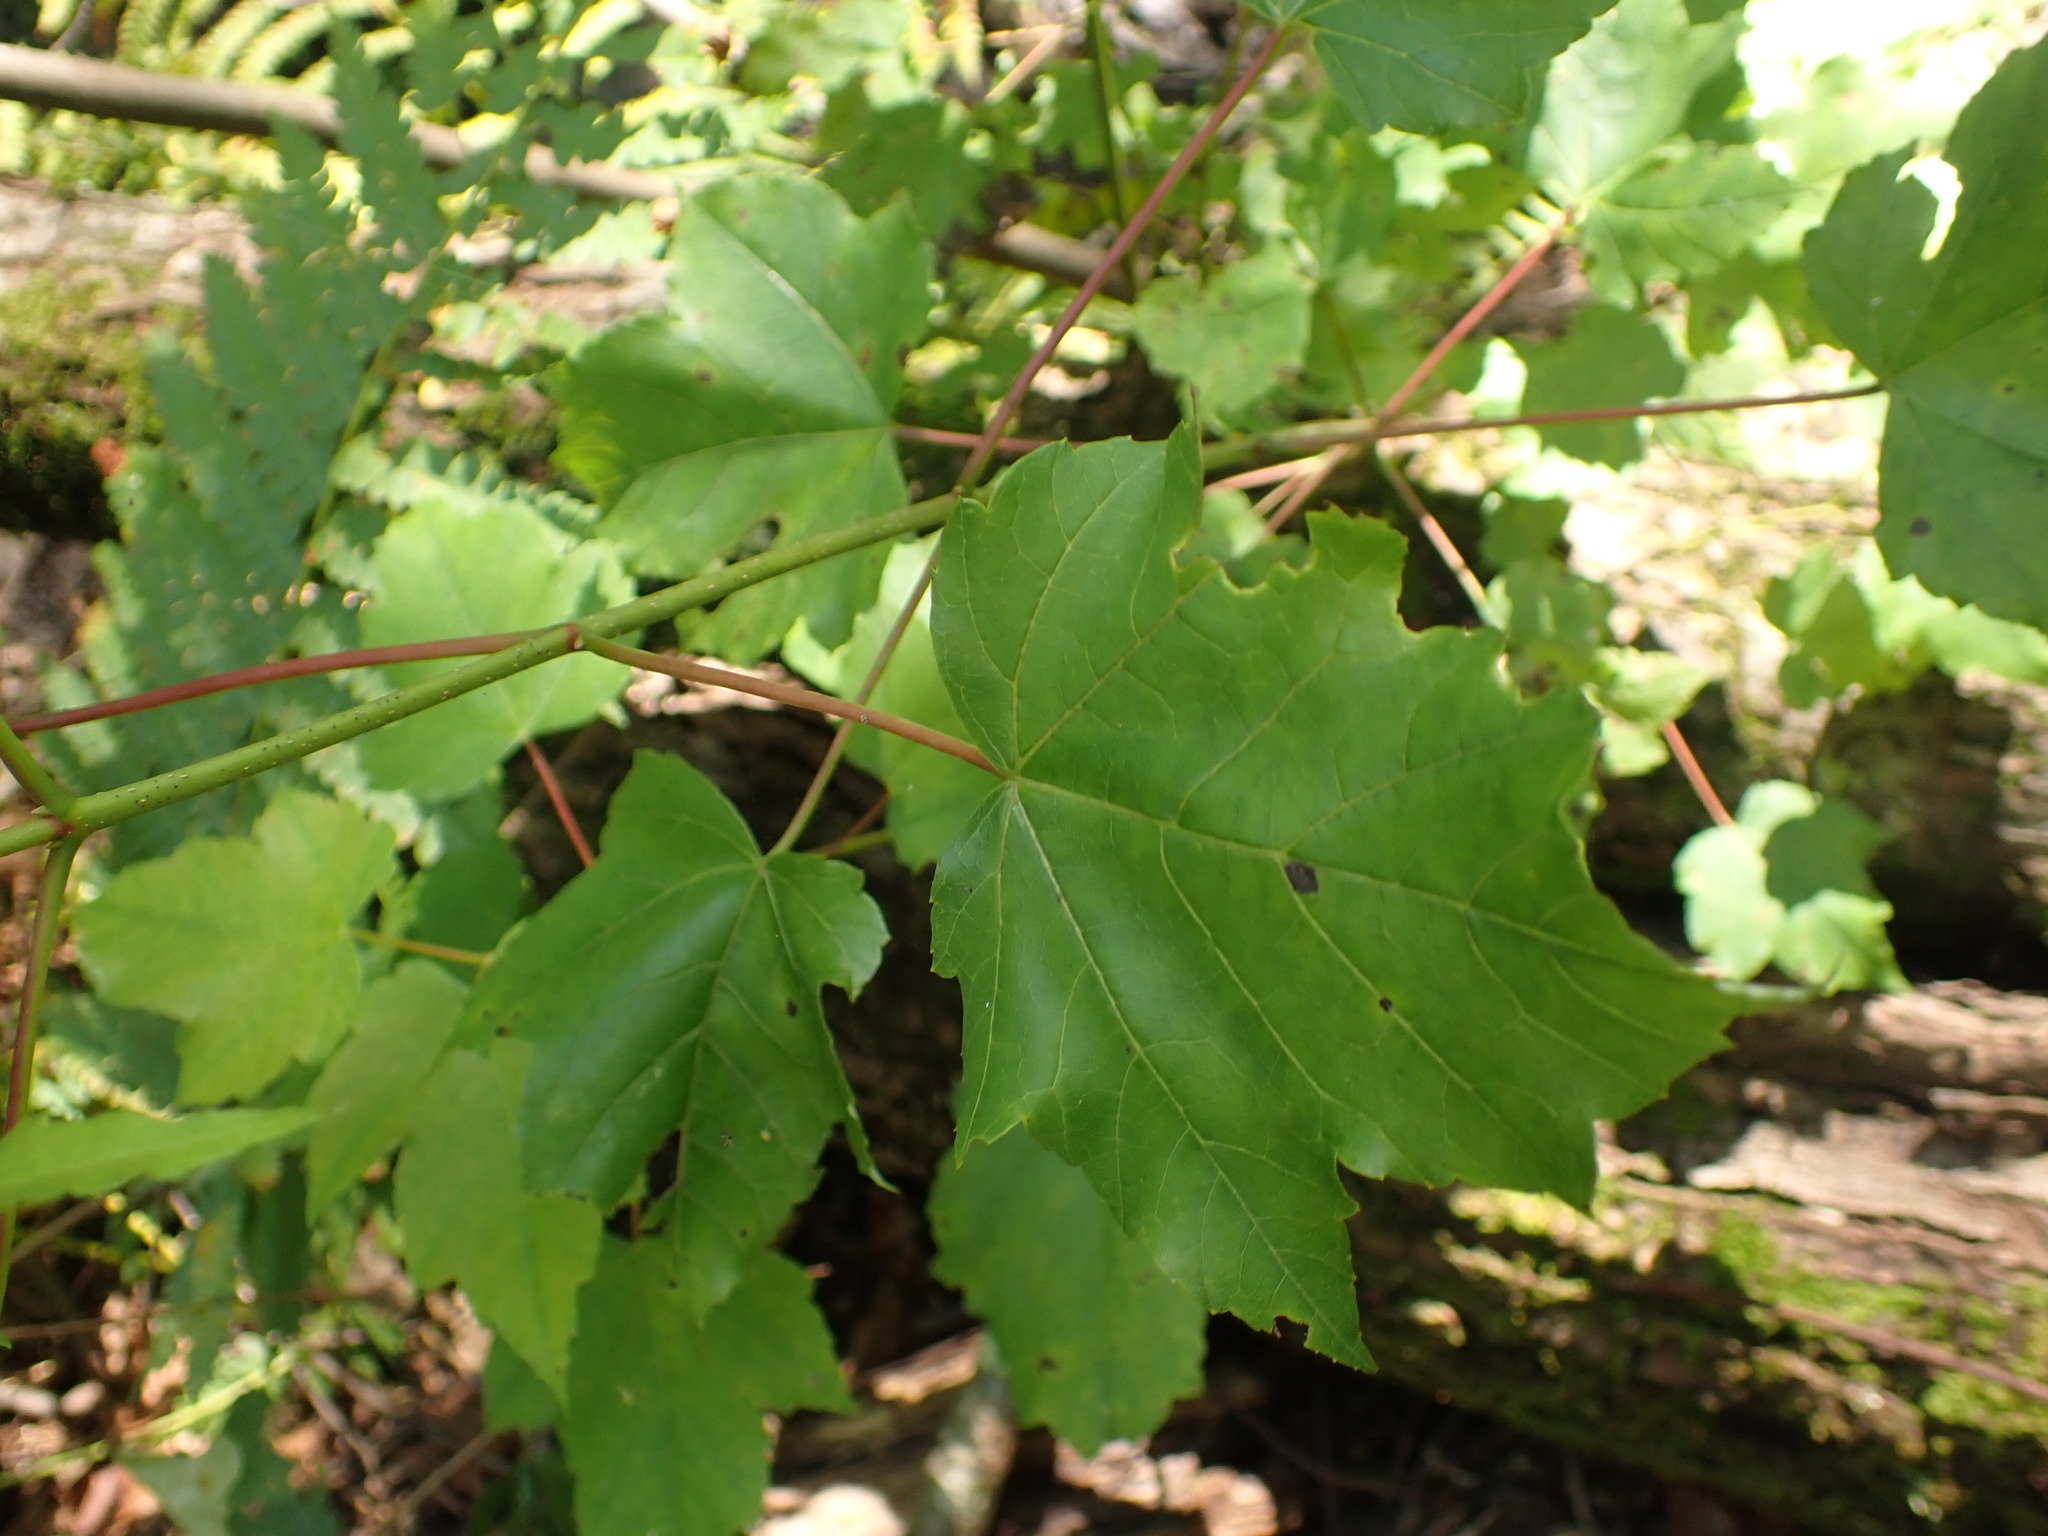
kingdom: Plantae
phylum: Tracheophyta
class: Magnoliopsida
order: Sapindales
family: Sapindaceae
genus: Acer
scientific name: Acer rubrum
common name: Red maple
